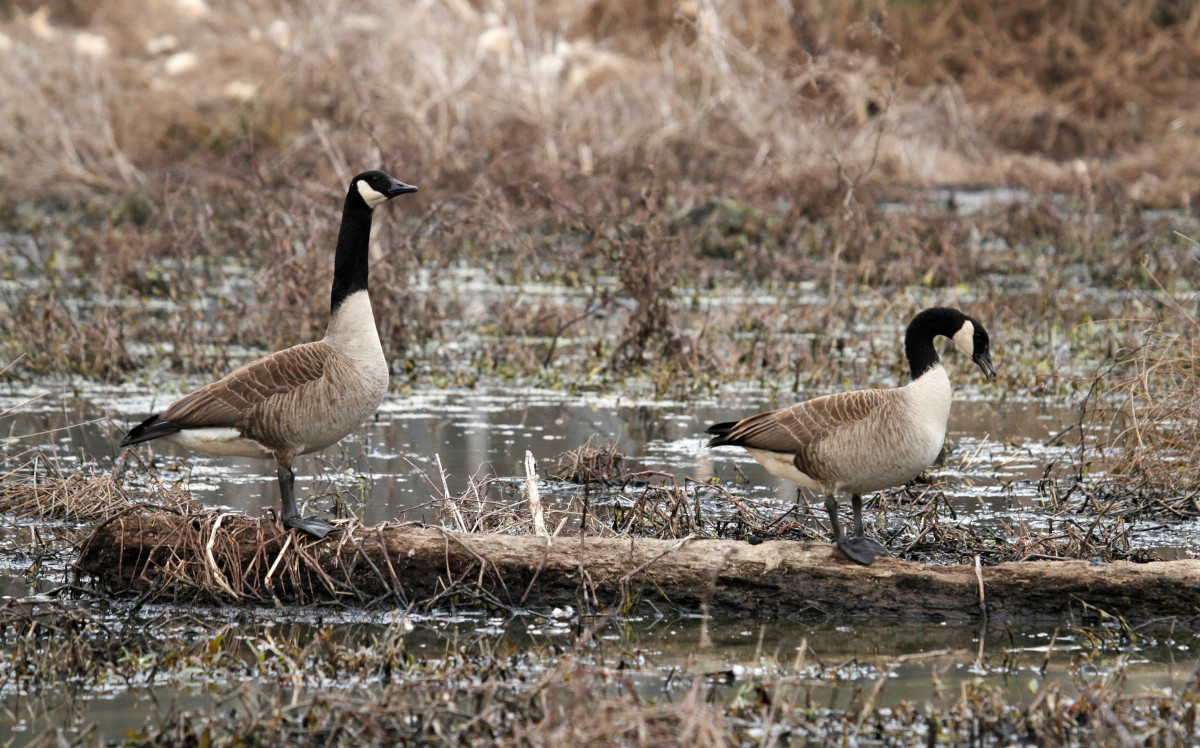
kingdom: Animalia
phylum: Chordata
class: Aves
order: Anseriformes
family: Anatidae
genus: Branta
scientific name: Branta canadensis
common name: Canada goose
